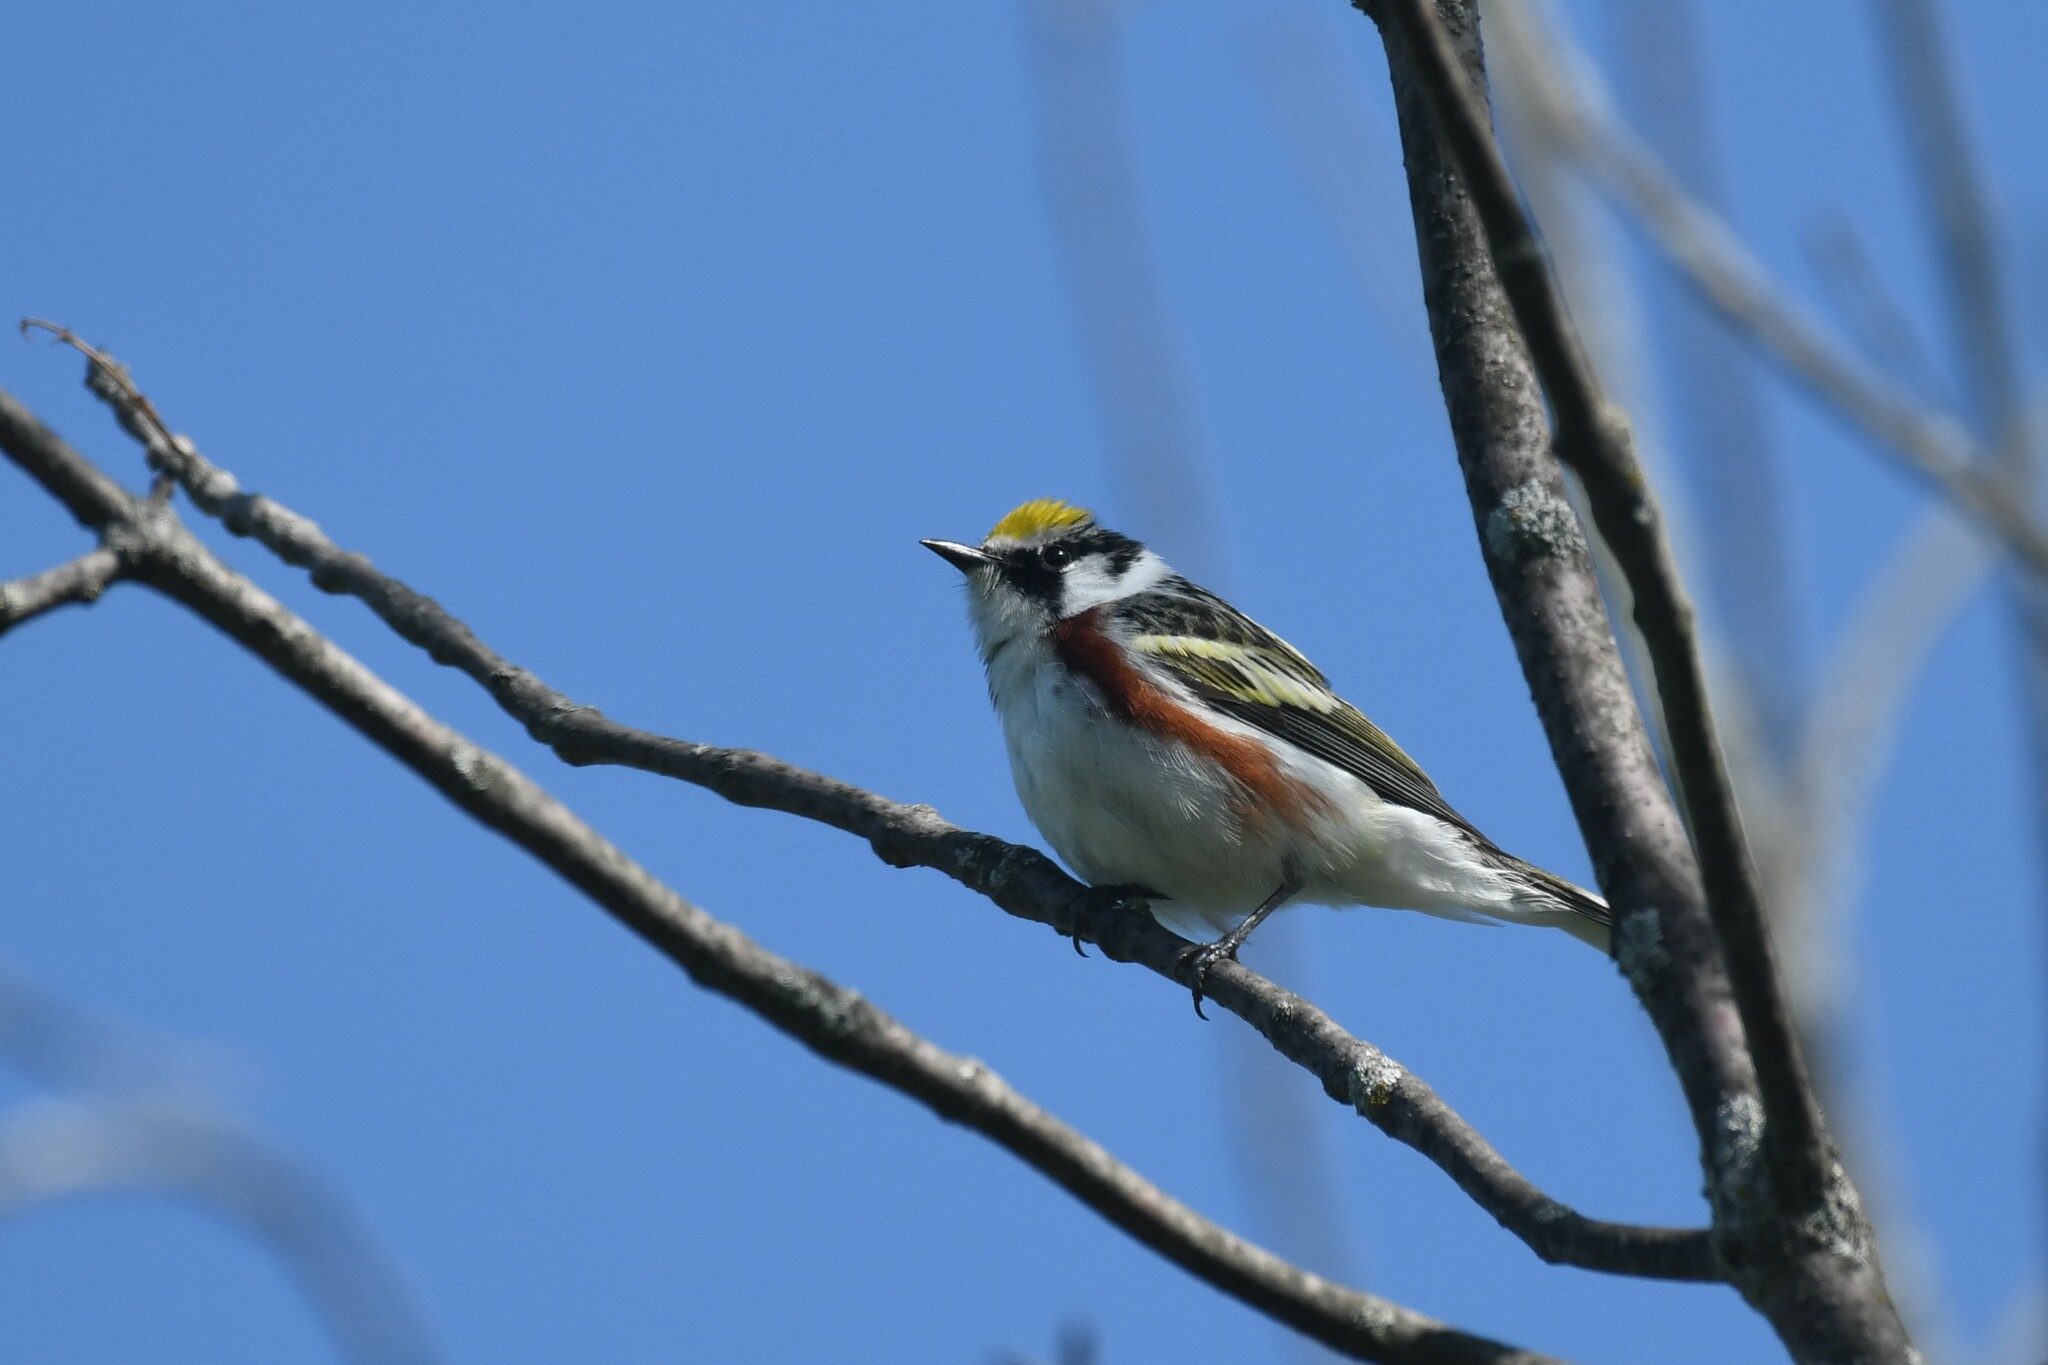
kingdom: Animalia
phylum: Chordata
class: Aves
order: Passeriformes
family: Parulidae
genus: Setophaga
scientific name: Setophaga pensylvanica
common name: Chestnut-sided warbler
